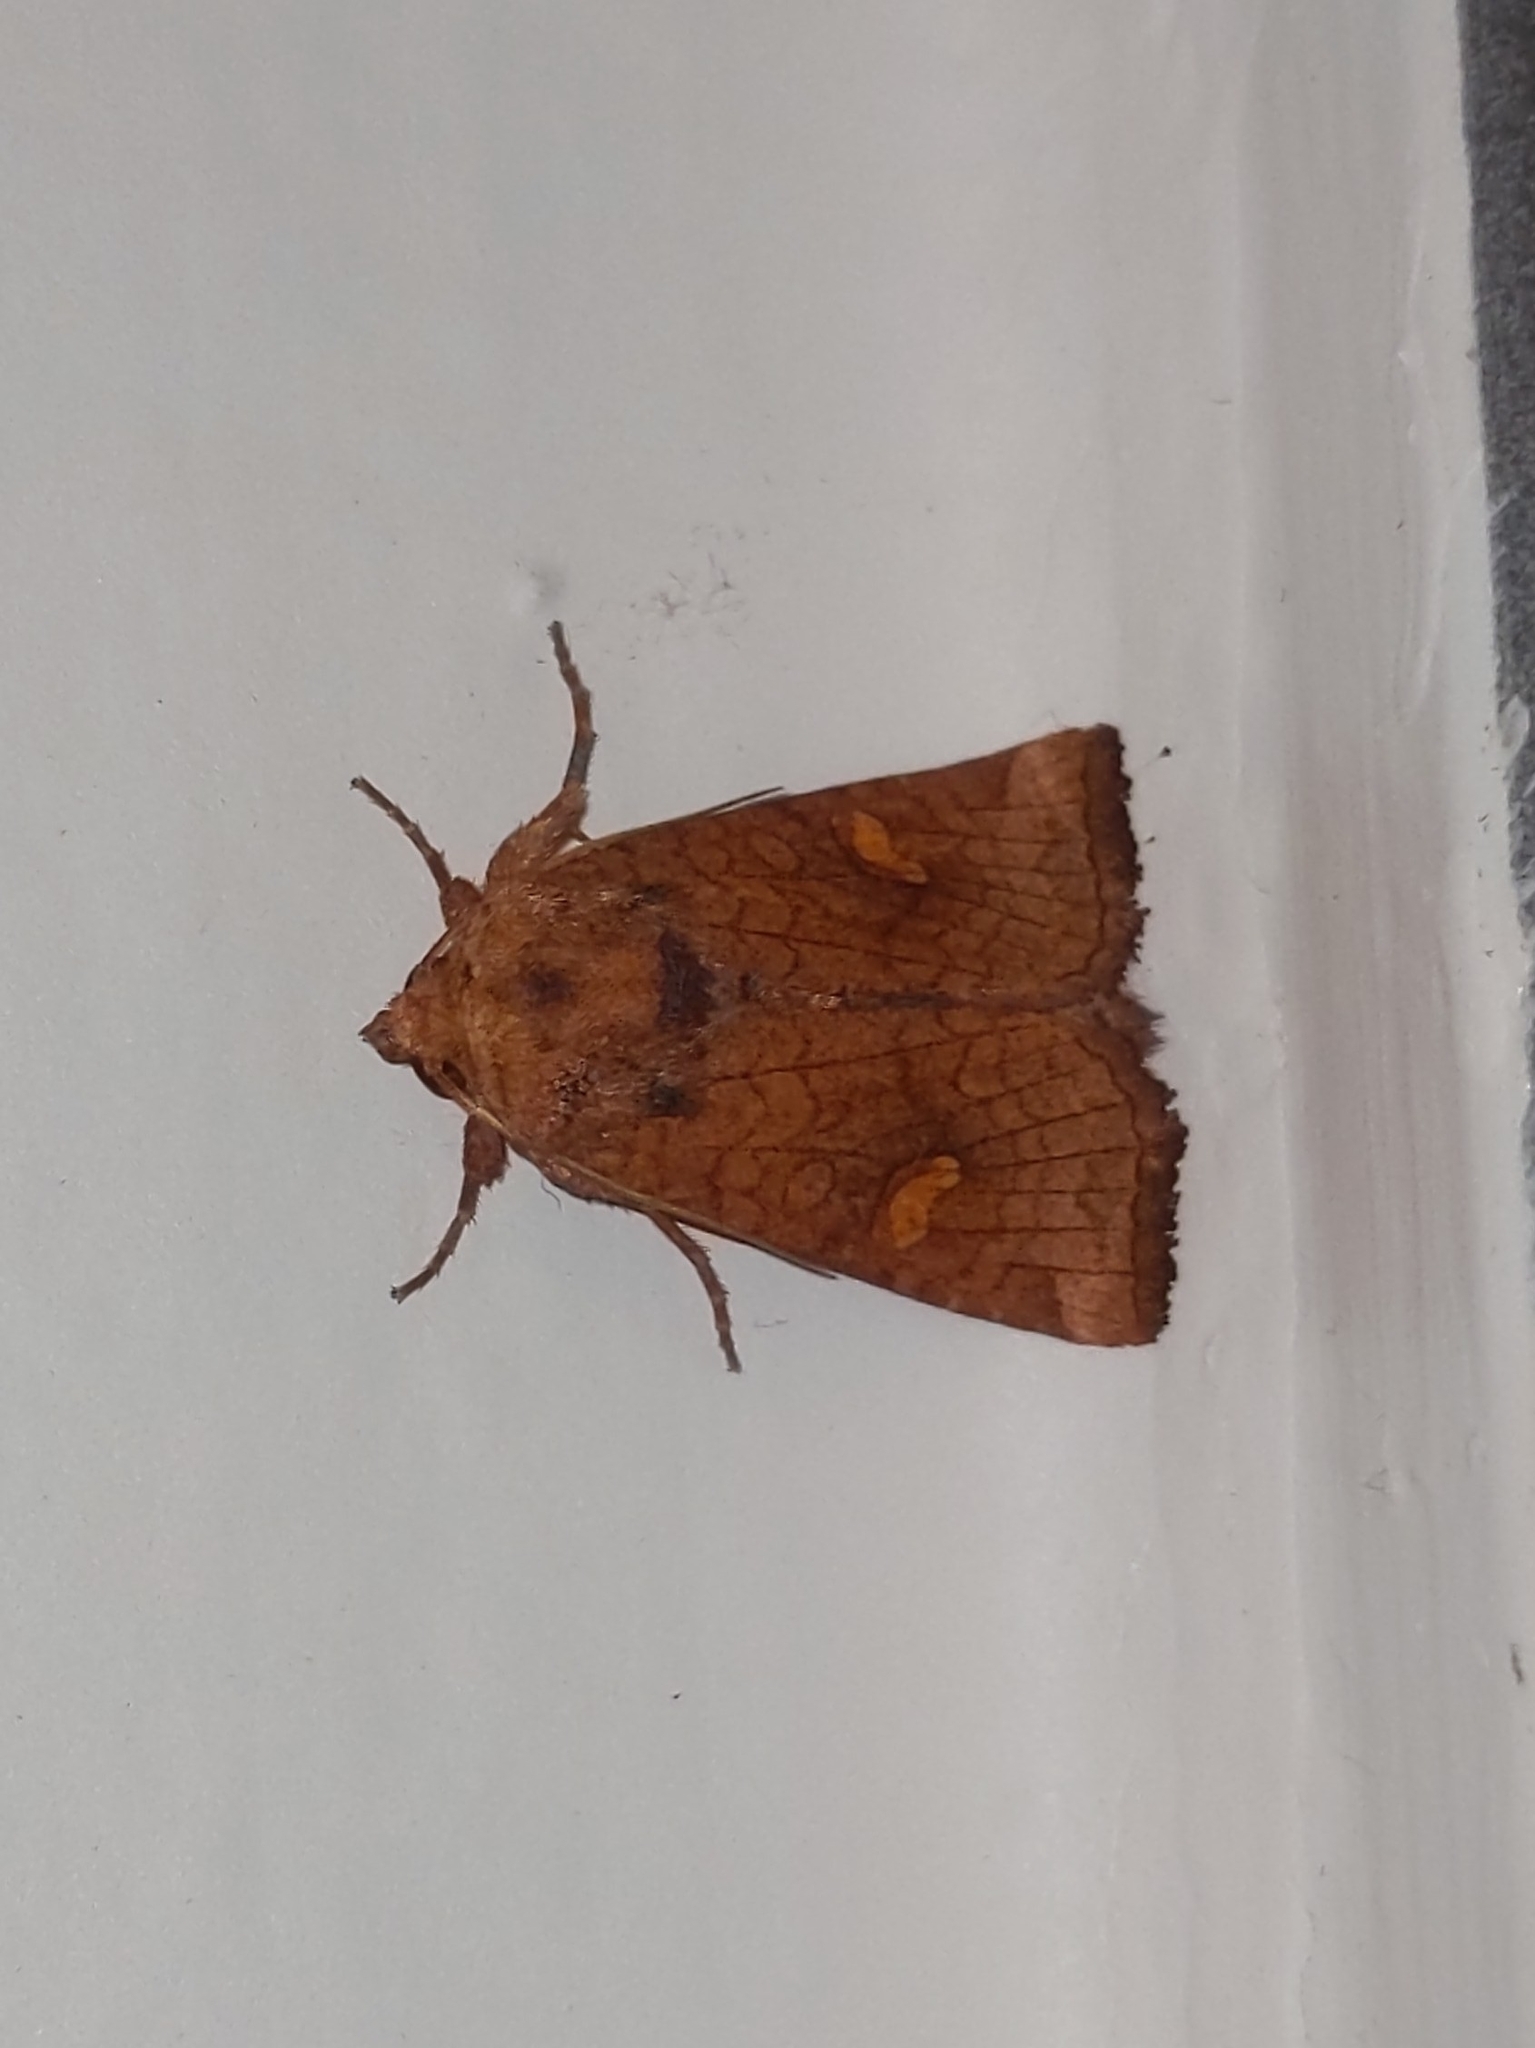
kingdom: Animalia
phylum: Arthropoda
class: Insecta
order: Lepidoptera
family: Noctuidae
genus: Amphipoea
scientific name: Amphipoea americana
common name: American ear moth
